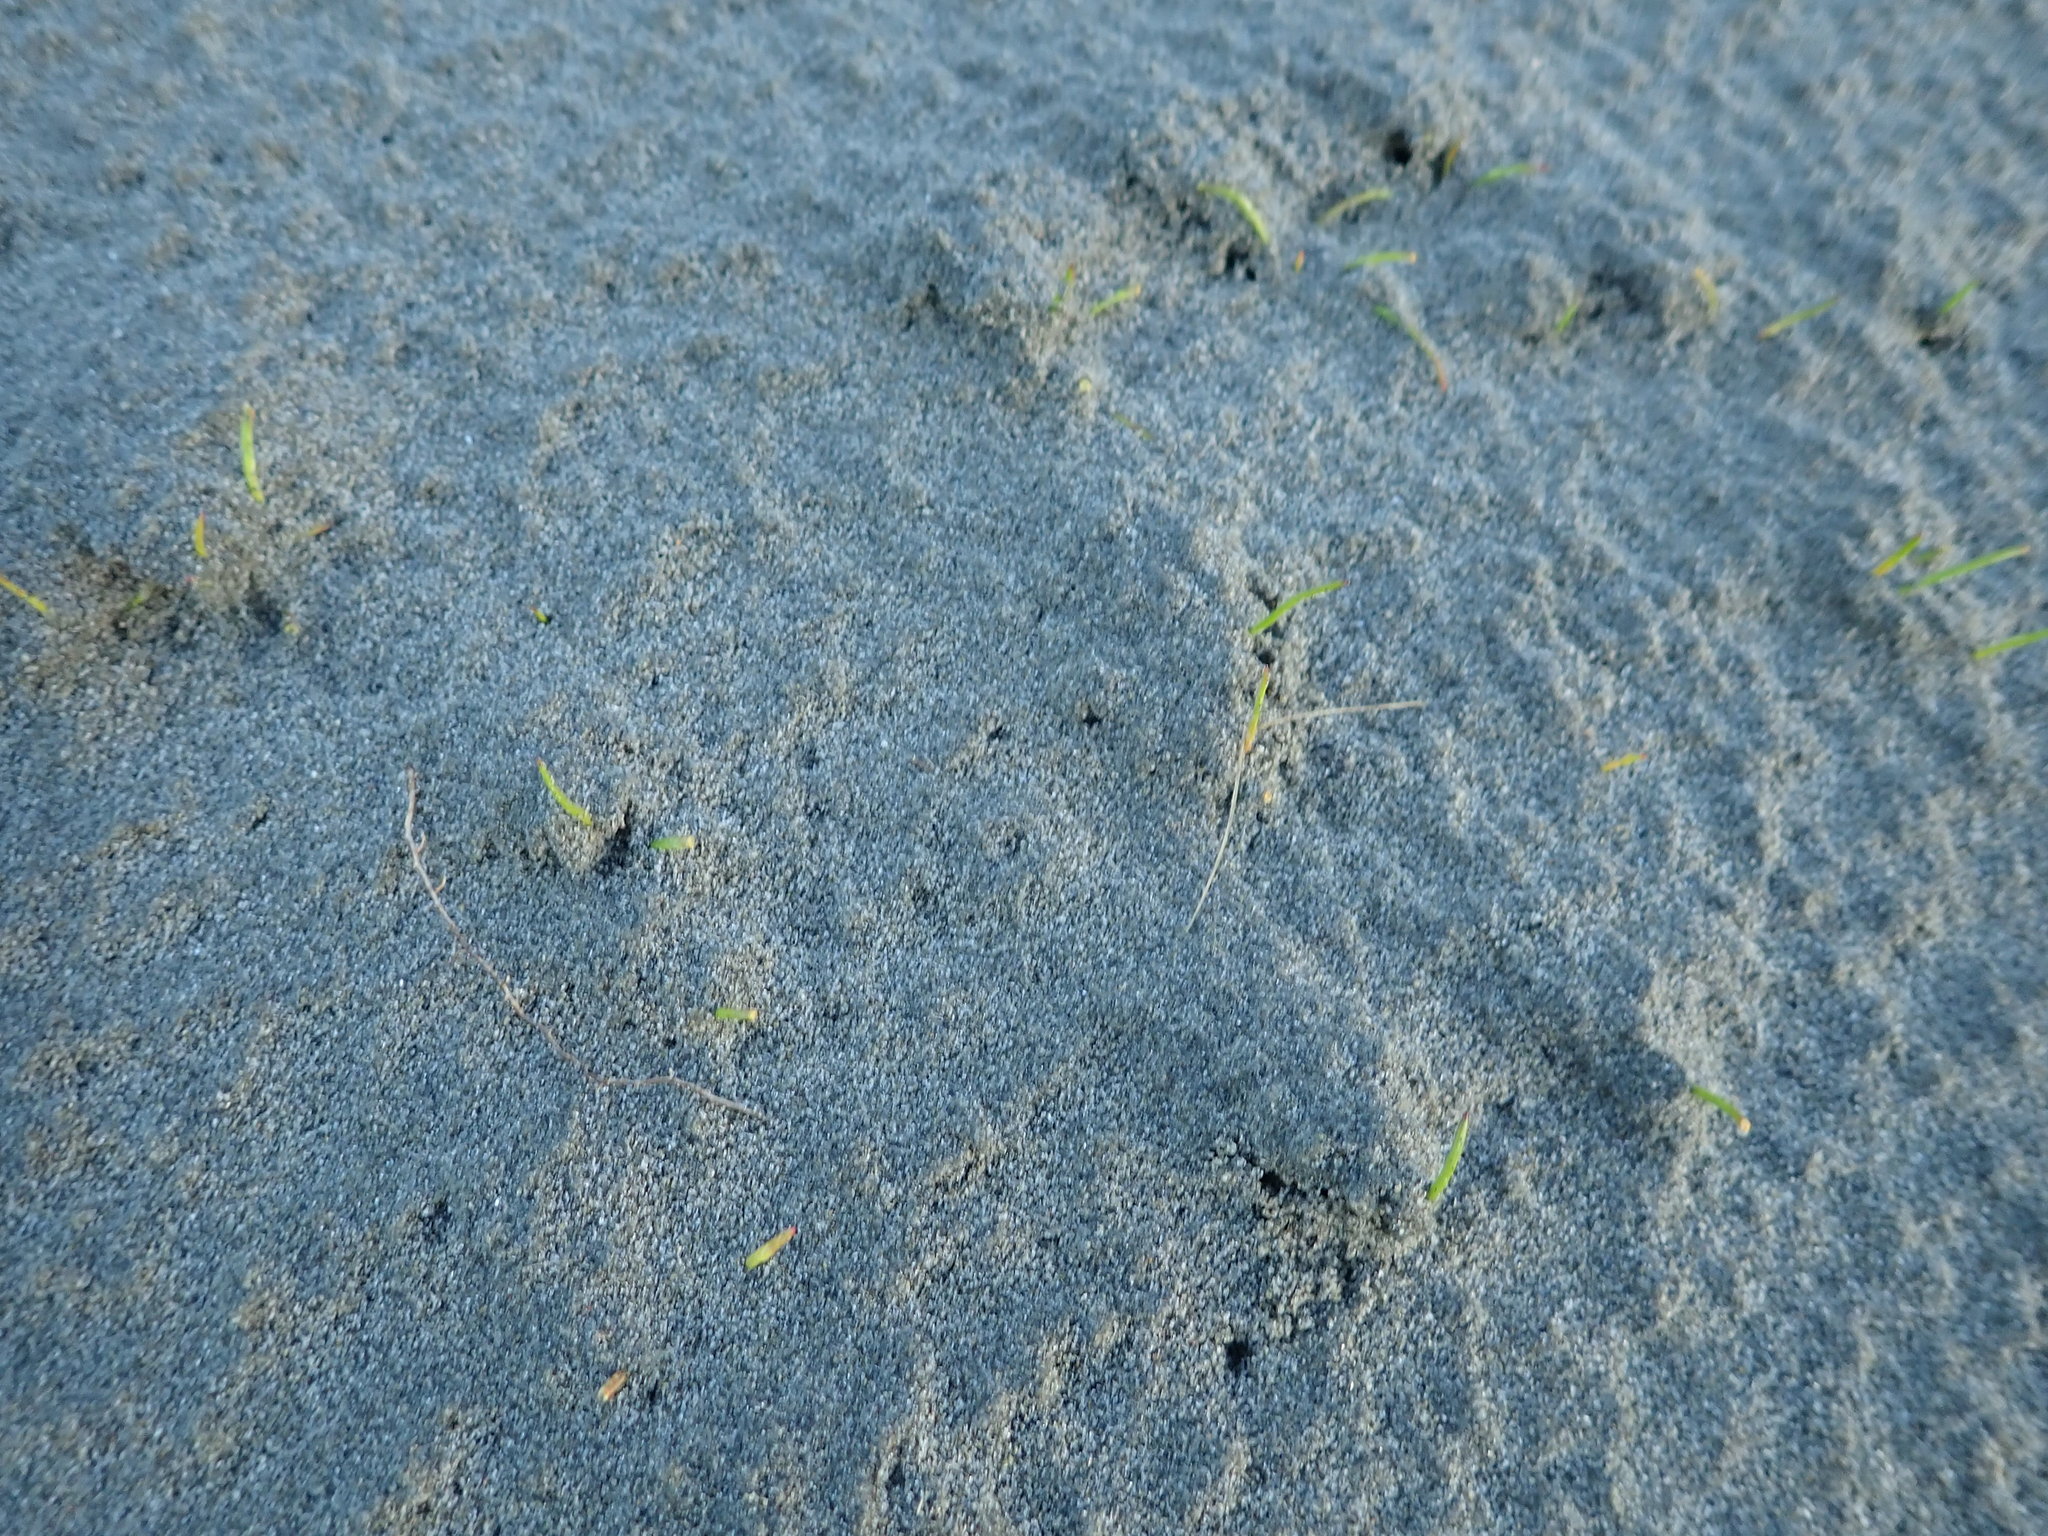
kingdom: Plantae
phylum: Tracheophyta
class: Liliopsida
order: Alismatales
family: Juncaginaceae
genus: Triglochin
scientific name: Triglochin striata
